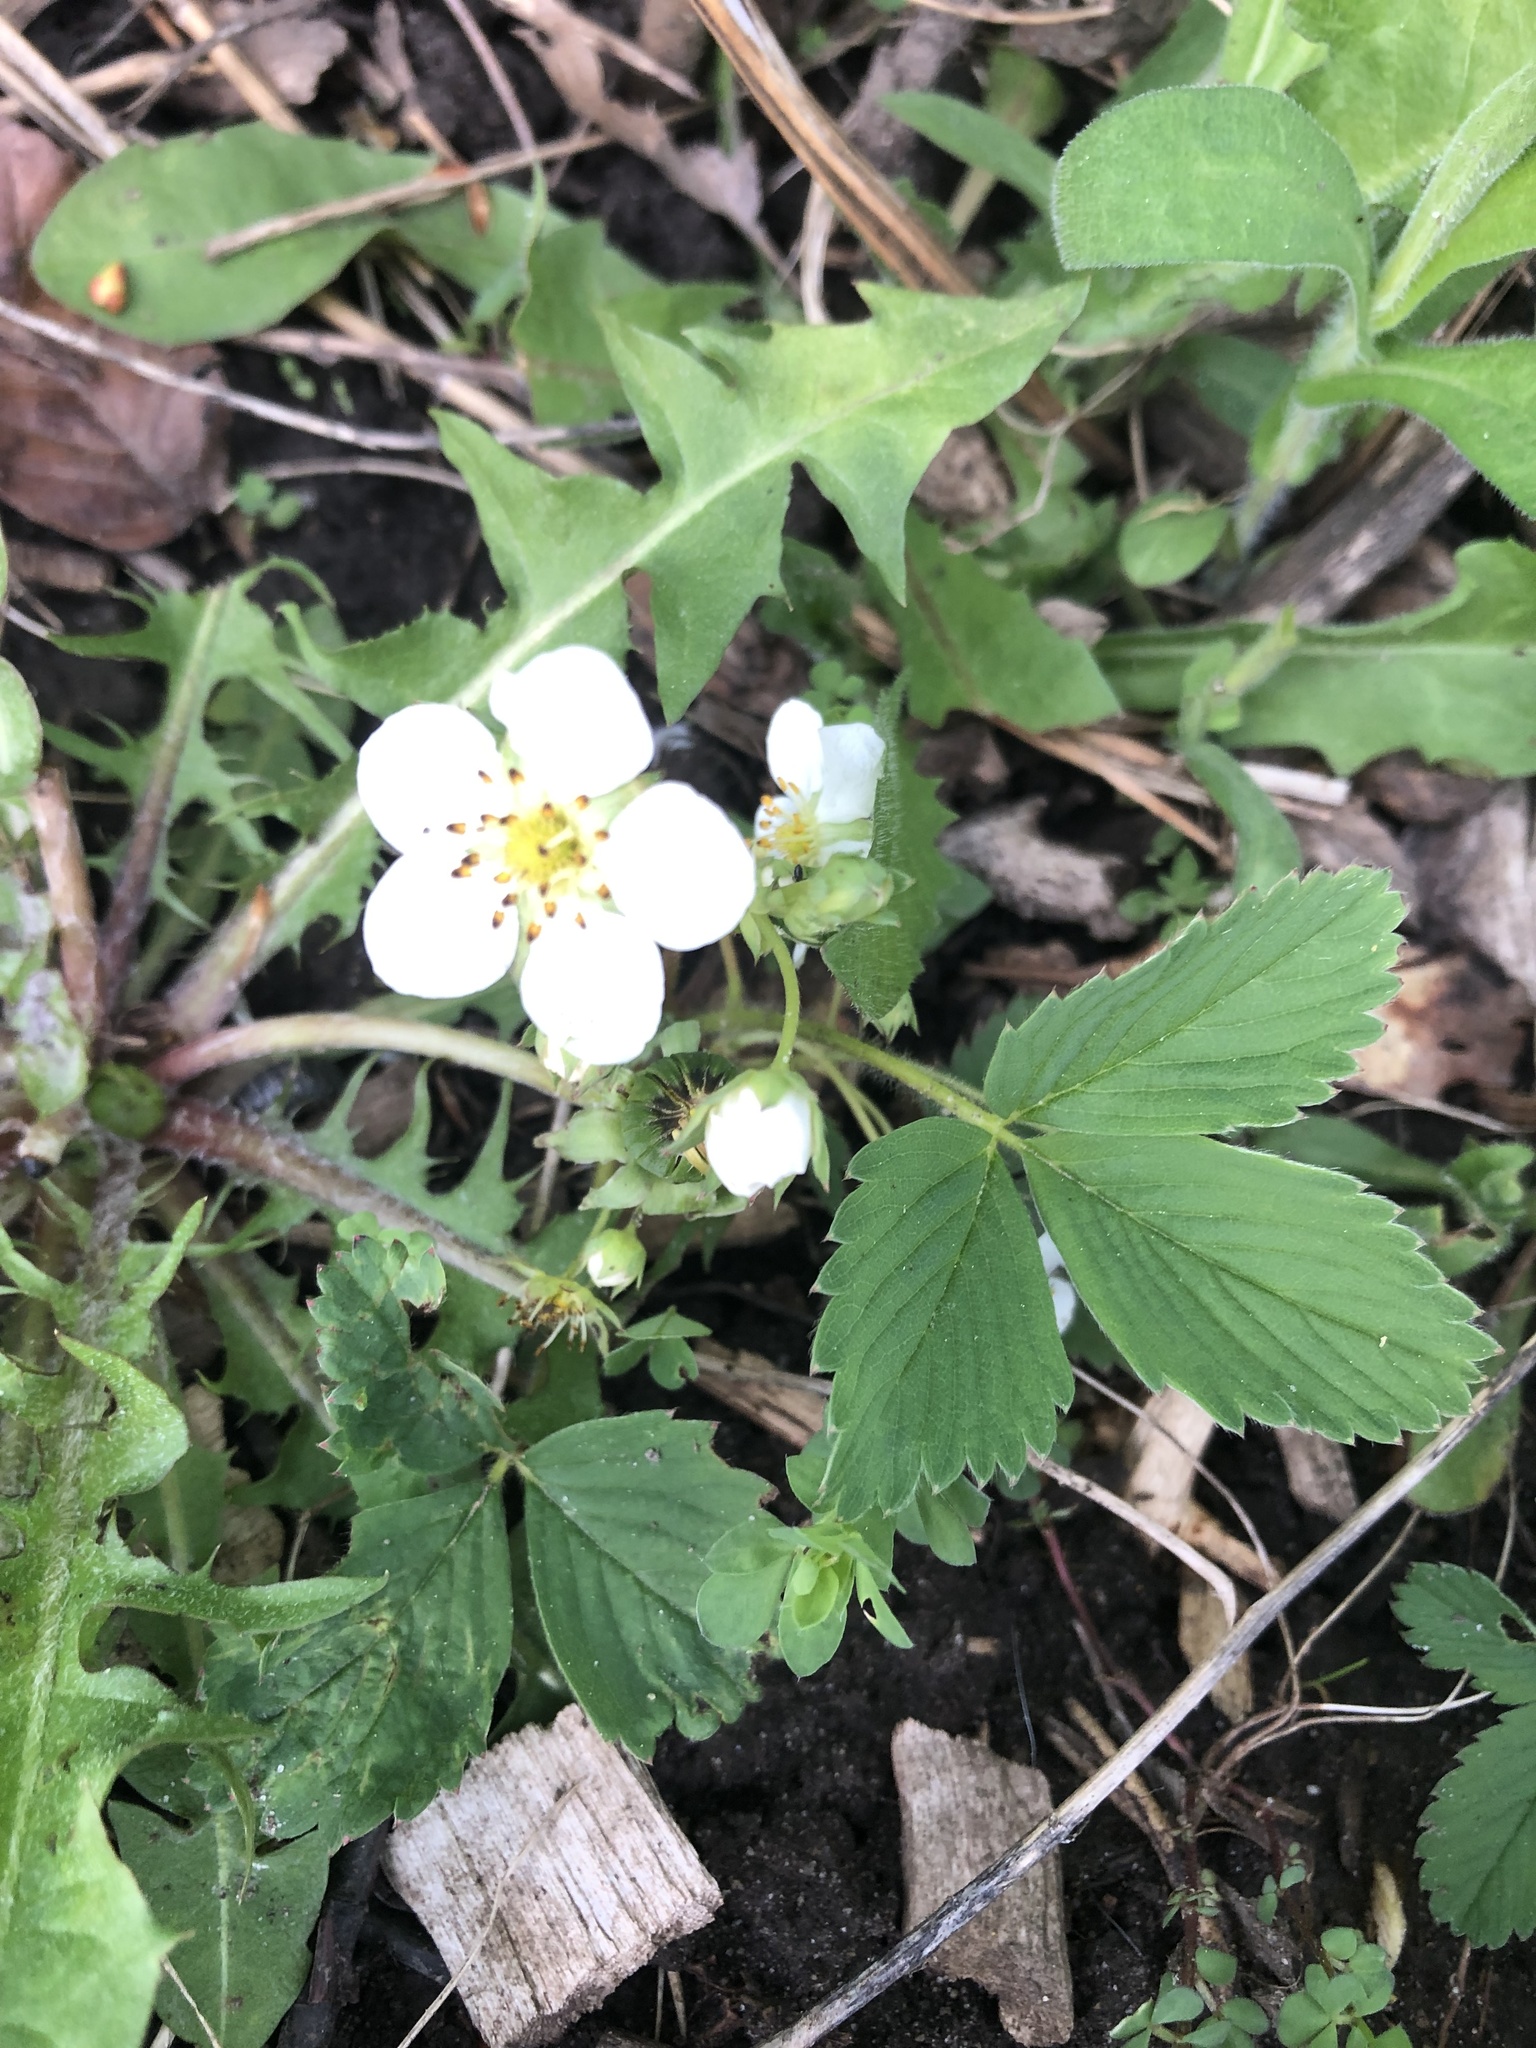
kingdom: Plantae
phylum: Tracheophyta
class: Magnoliopsida
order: Rosales
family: Rosaceae
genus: Fragaria
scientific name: Fragaria virginiana
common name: Thickleaved wild strawberry
